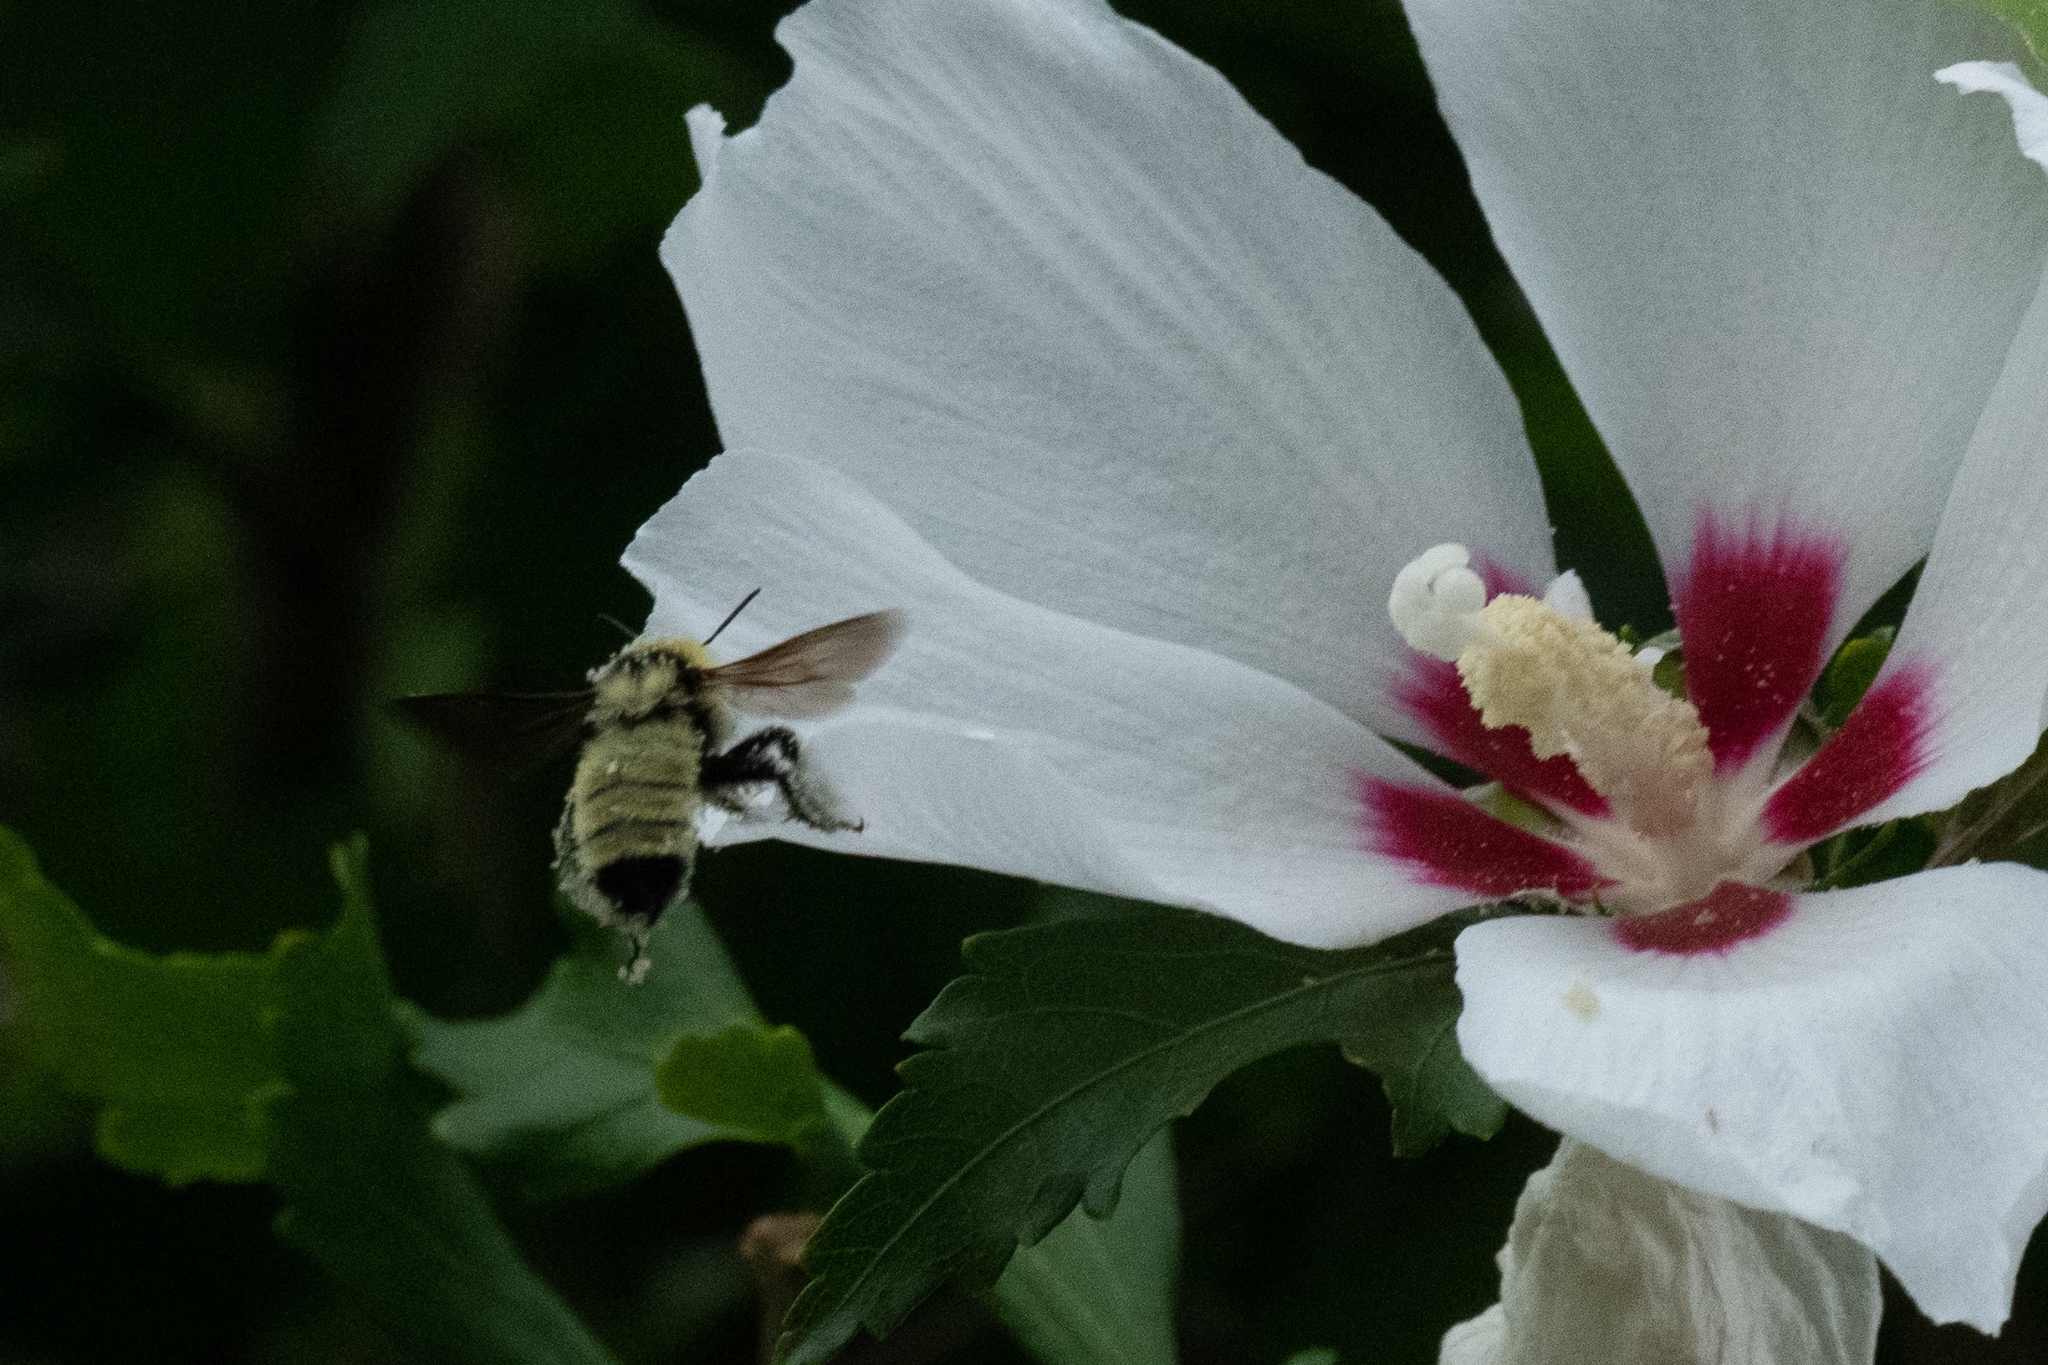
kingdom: Animalia
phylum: Arthropoda
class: Insecta
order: Hymenoptera
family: Apidae
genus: Bombus
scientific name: Bombus fervidus
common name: Yellow bumble bee
